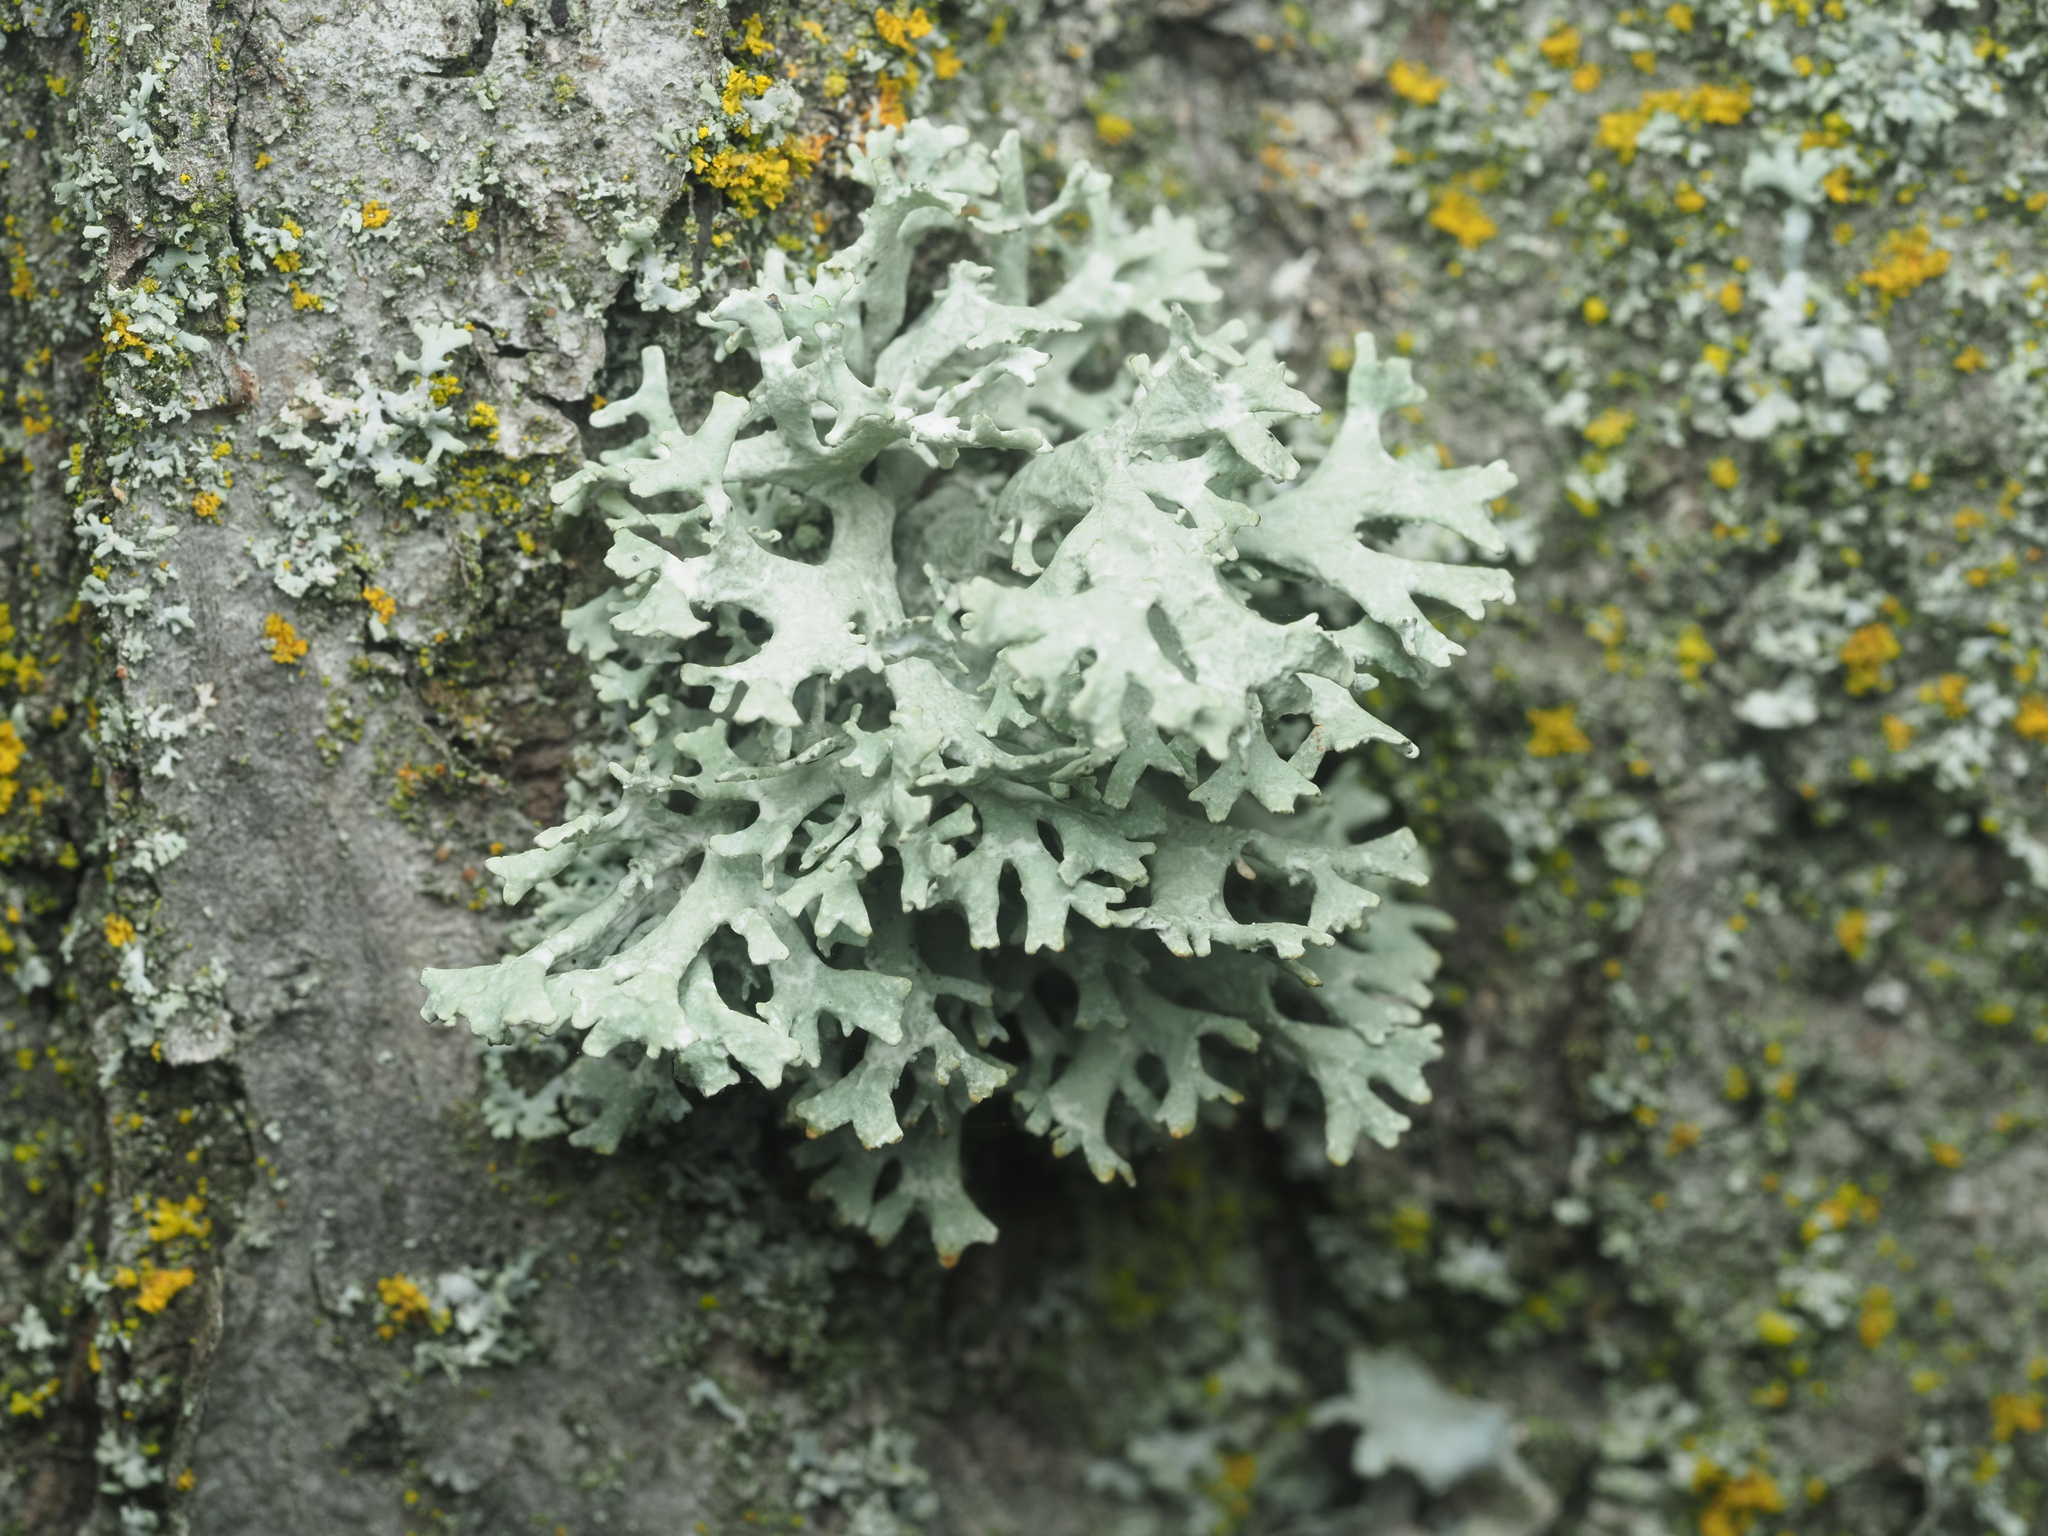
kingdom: Fungi
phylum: Ascomycota
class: Lecanoromycetes
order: Lecanorales
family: Parmeliaceae
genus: Evernia
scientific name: Evernia prunastri
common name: Oak moss
